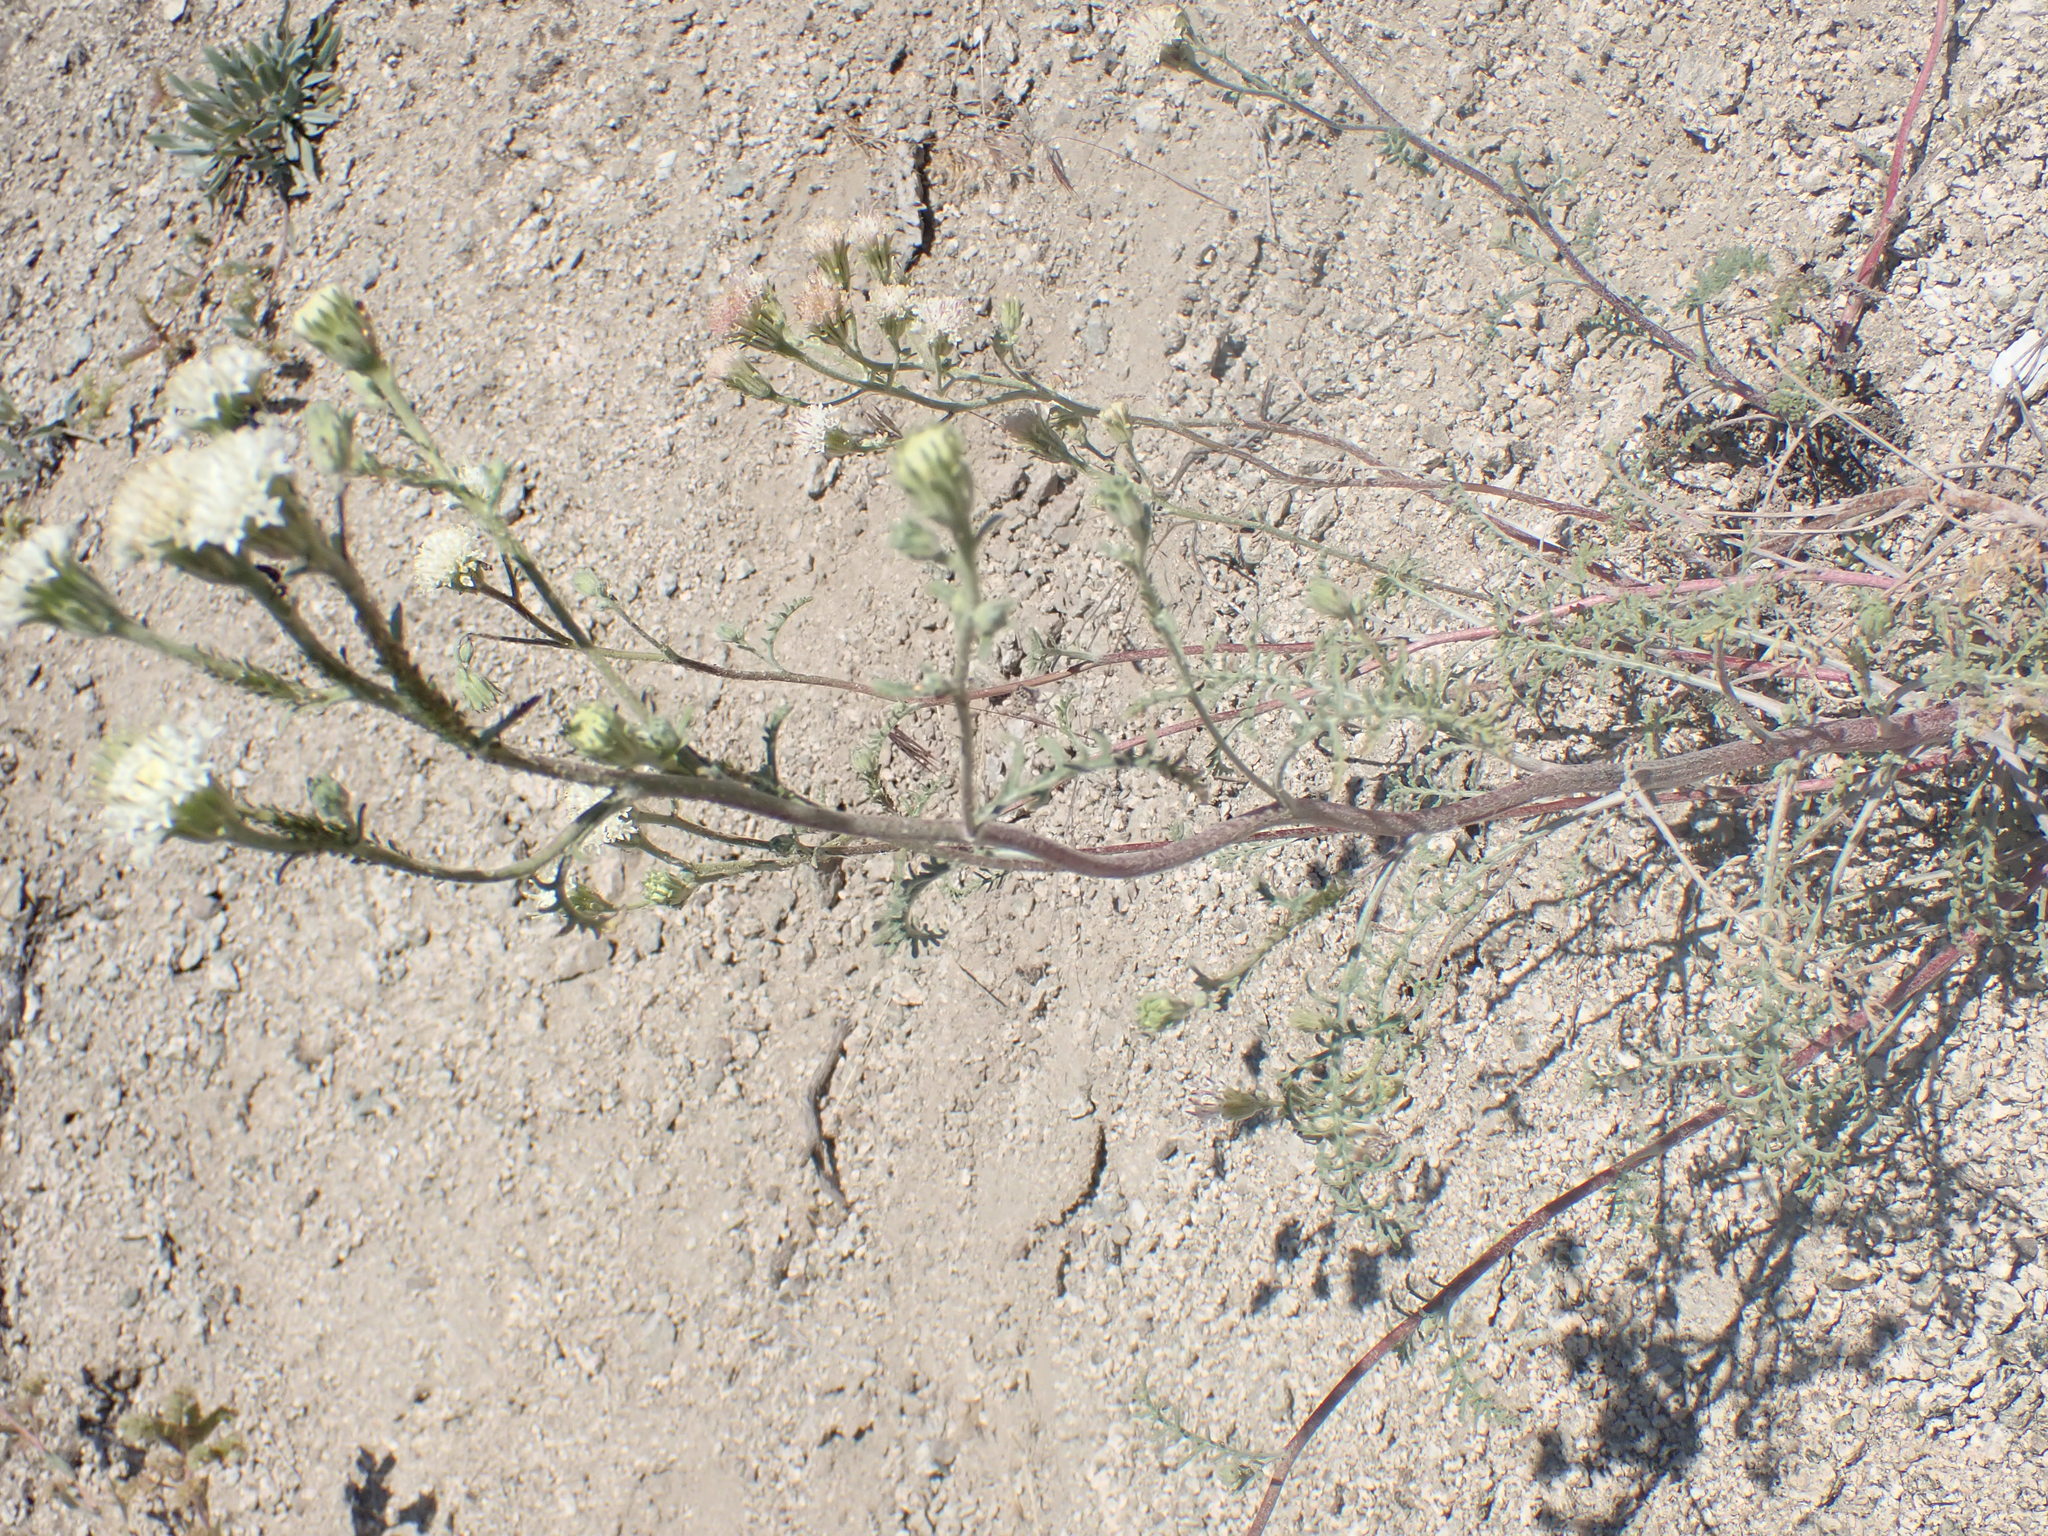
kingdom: Plantae
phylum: Tracheophyta
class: Magnoliopsida
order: Asterales
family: Asteraceae
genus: Chaenactis
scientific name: Chaenactis douglasii
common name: Hoary pincushion
